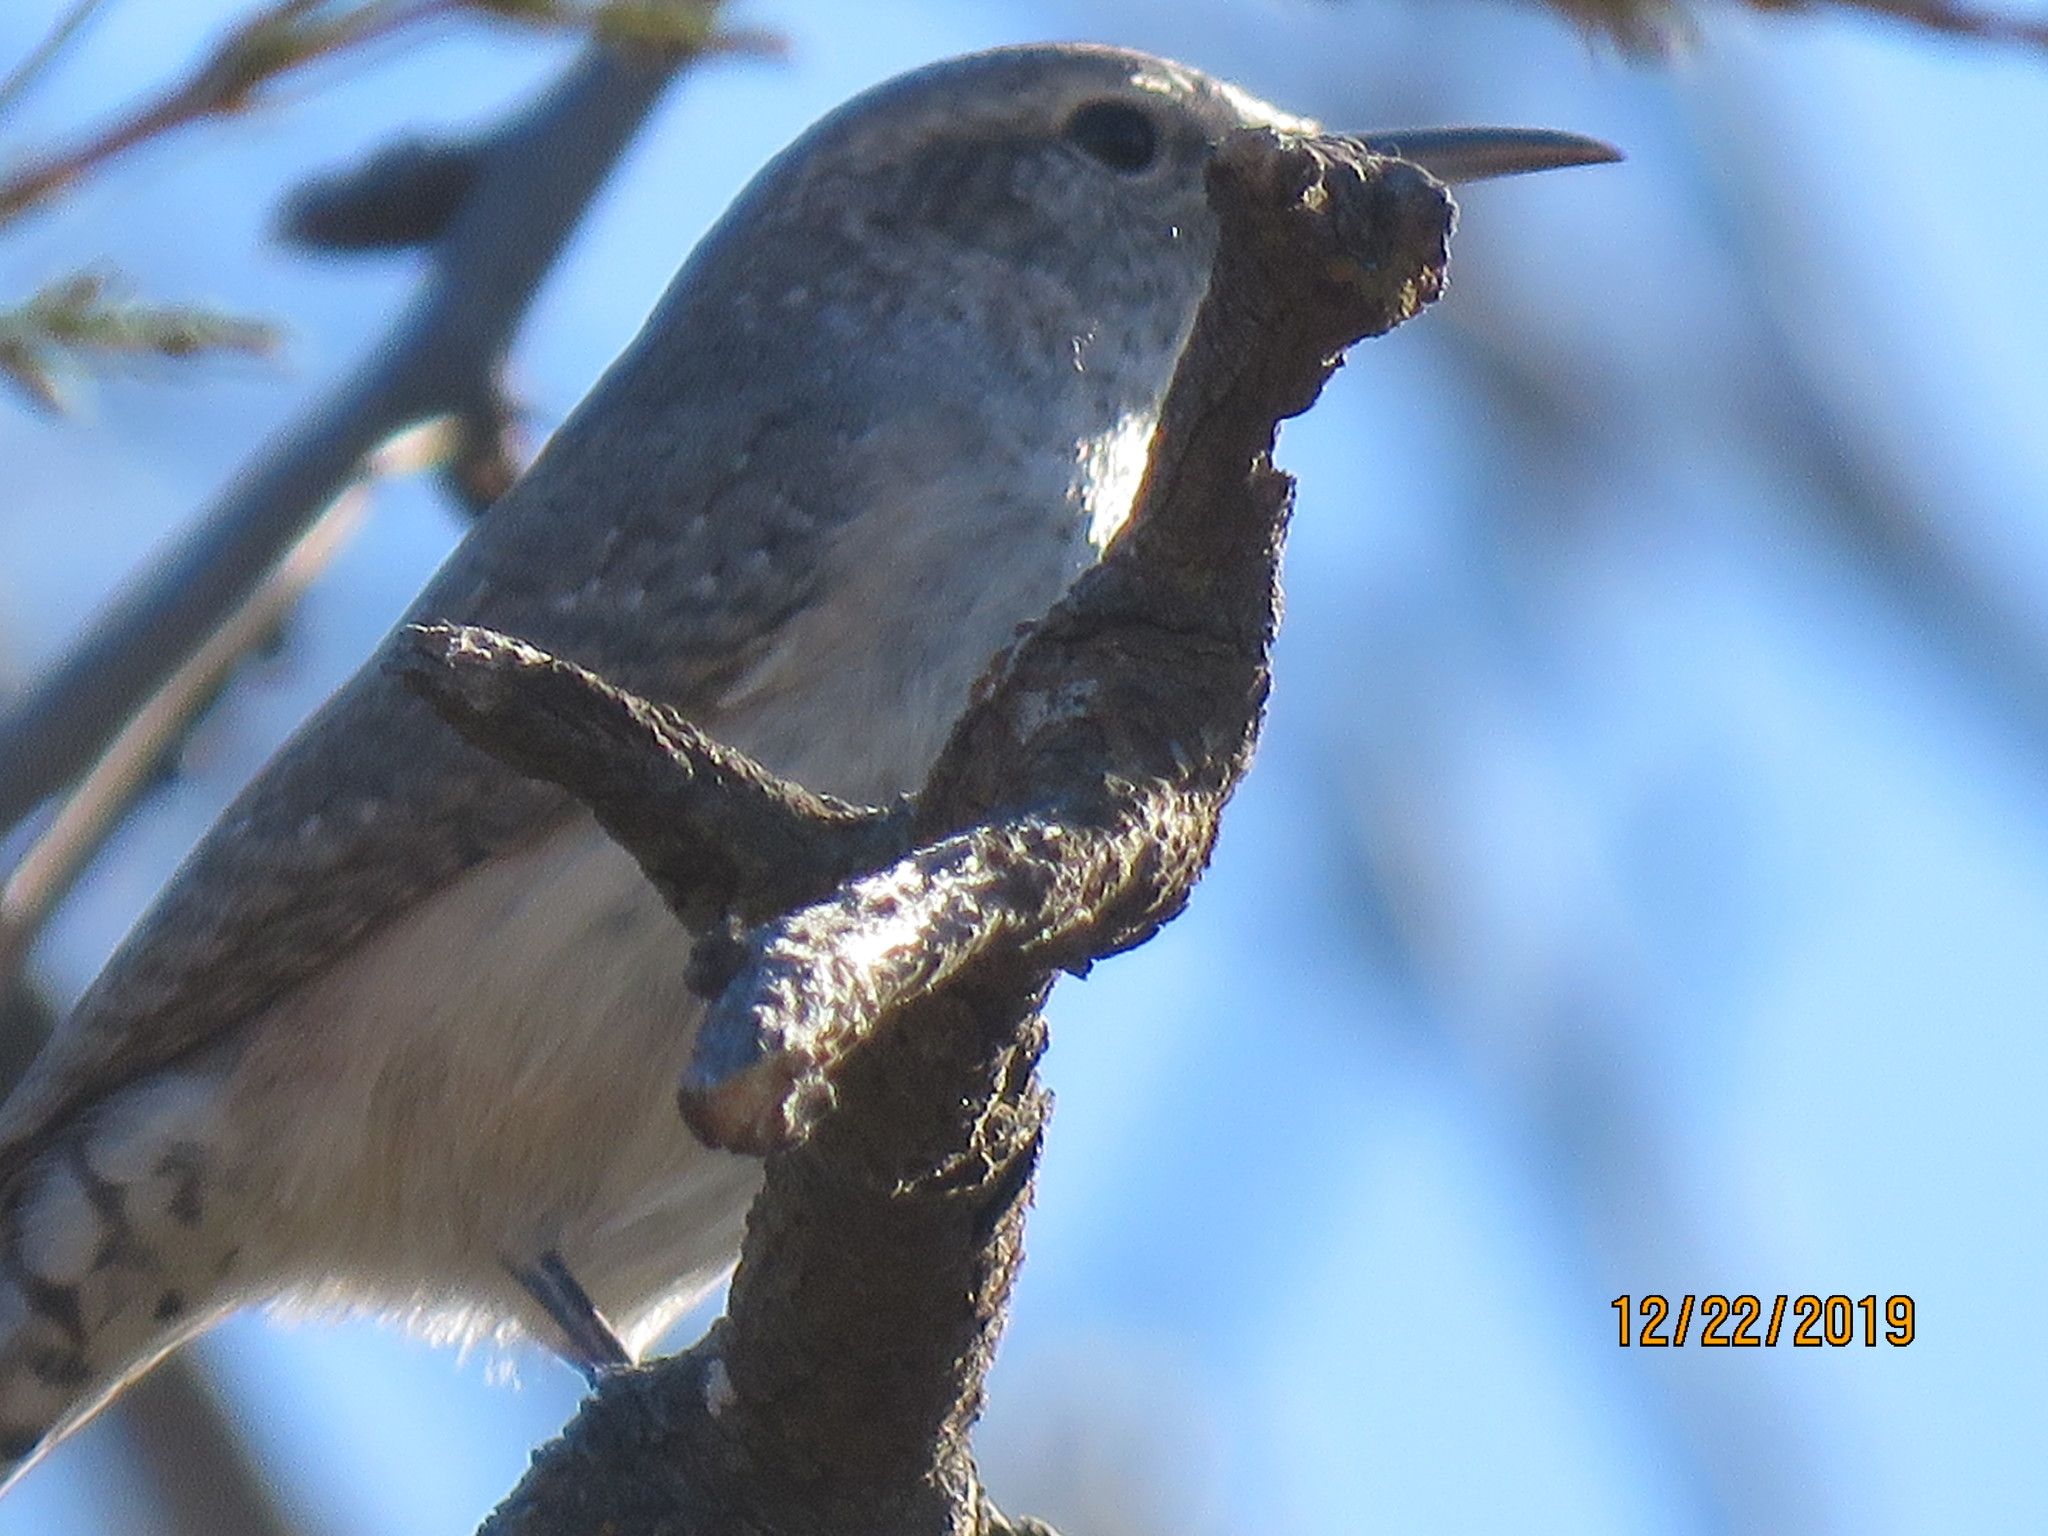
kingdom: Animalia
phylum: Chordata
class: Aves
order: Passeriformes
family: Troglodytidae
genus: Salpinctes
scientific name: Salpinctes obsoletus
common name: Rock wren
